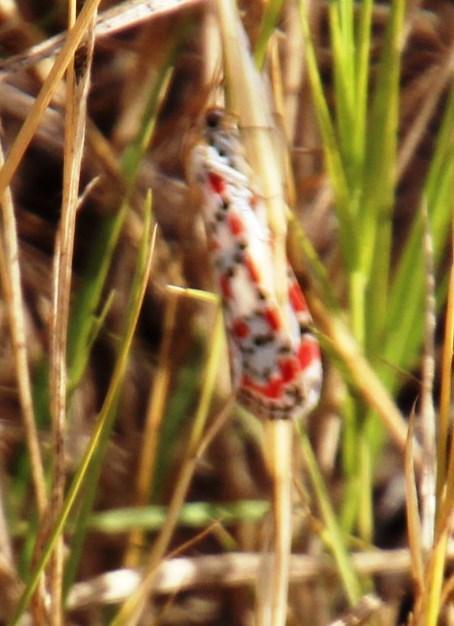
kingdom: Animalia
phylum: Arthropoda
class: Insecta
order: Lepidoptera
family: Erebidae
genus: Utetheisa
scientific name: Utetheisa pulchella
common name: Crimson speckled
